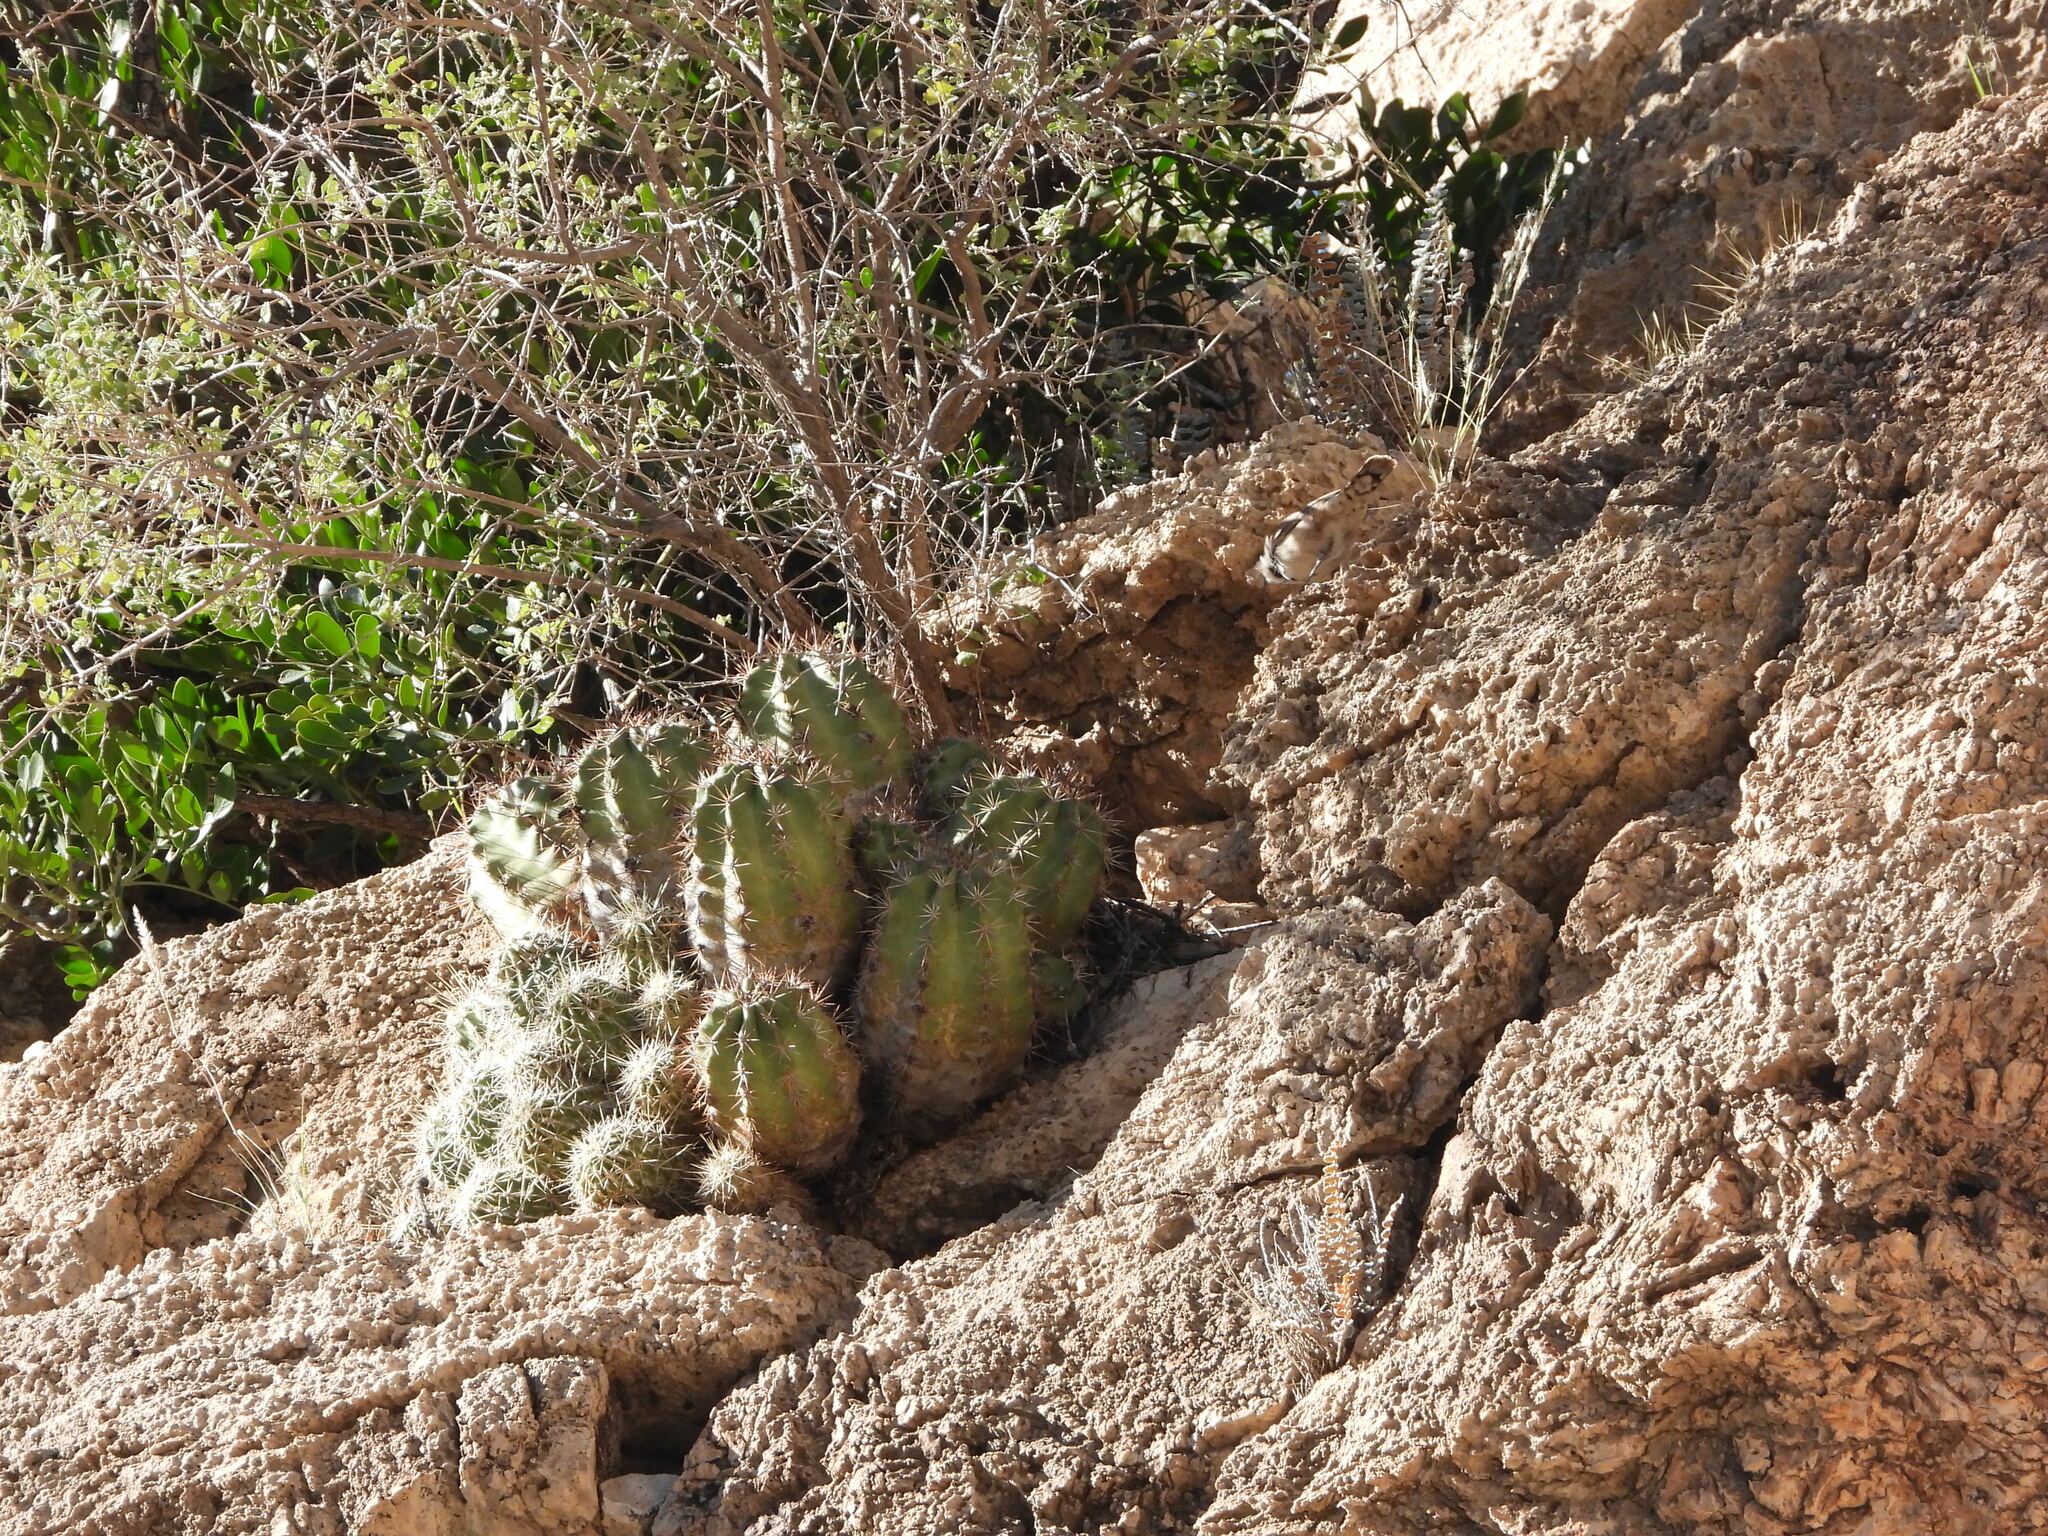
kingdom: Plantae
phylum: Tracheophyta
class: Magnoliopsida
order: Caryophyllales
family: Cactaceae
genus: Echinocereus
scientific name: Echinocereus coccineus
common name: Scarlet hedgehog cactus
